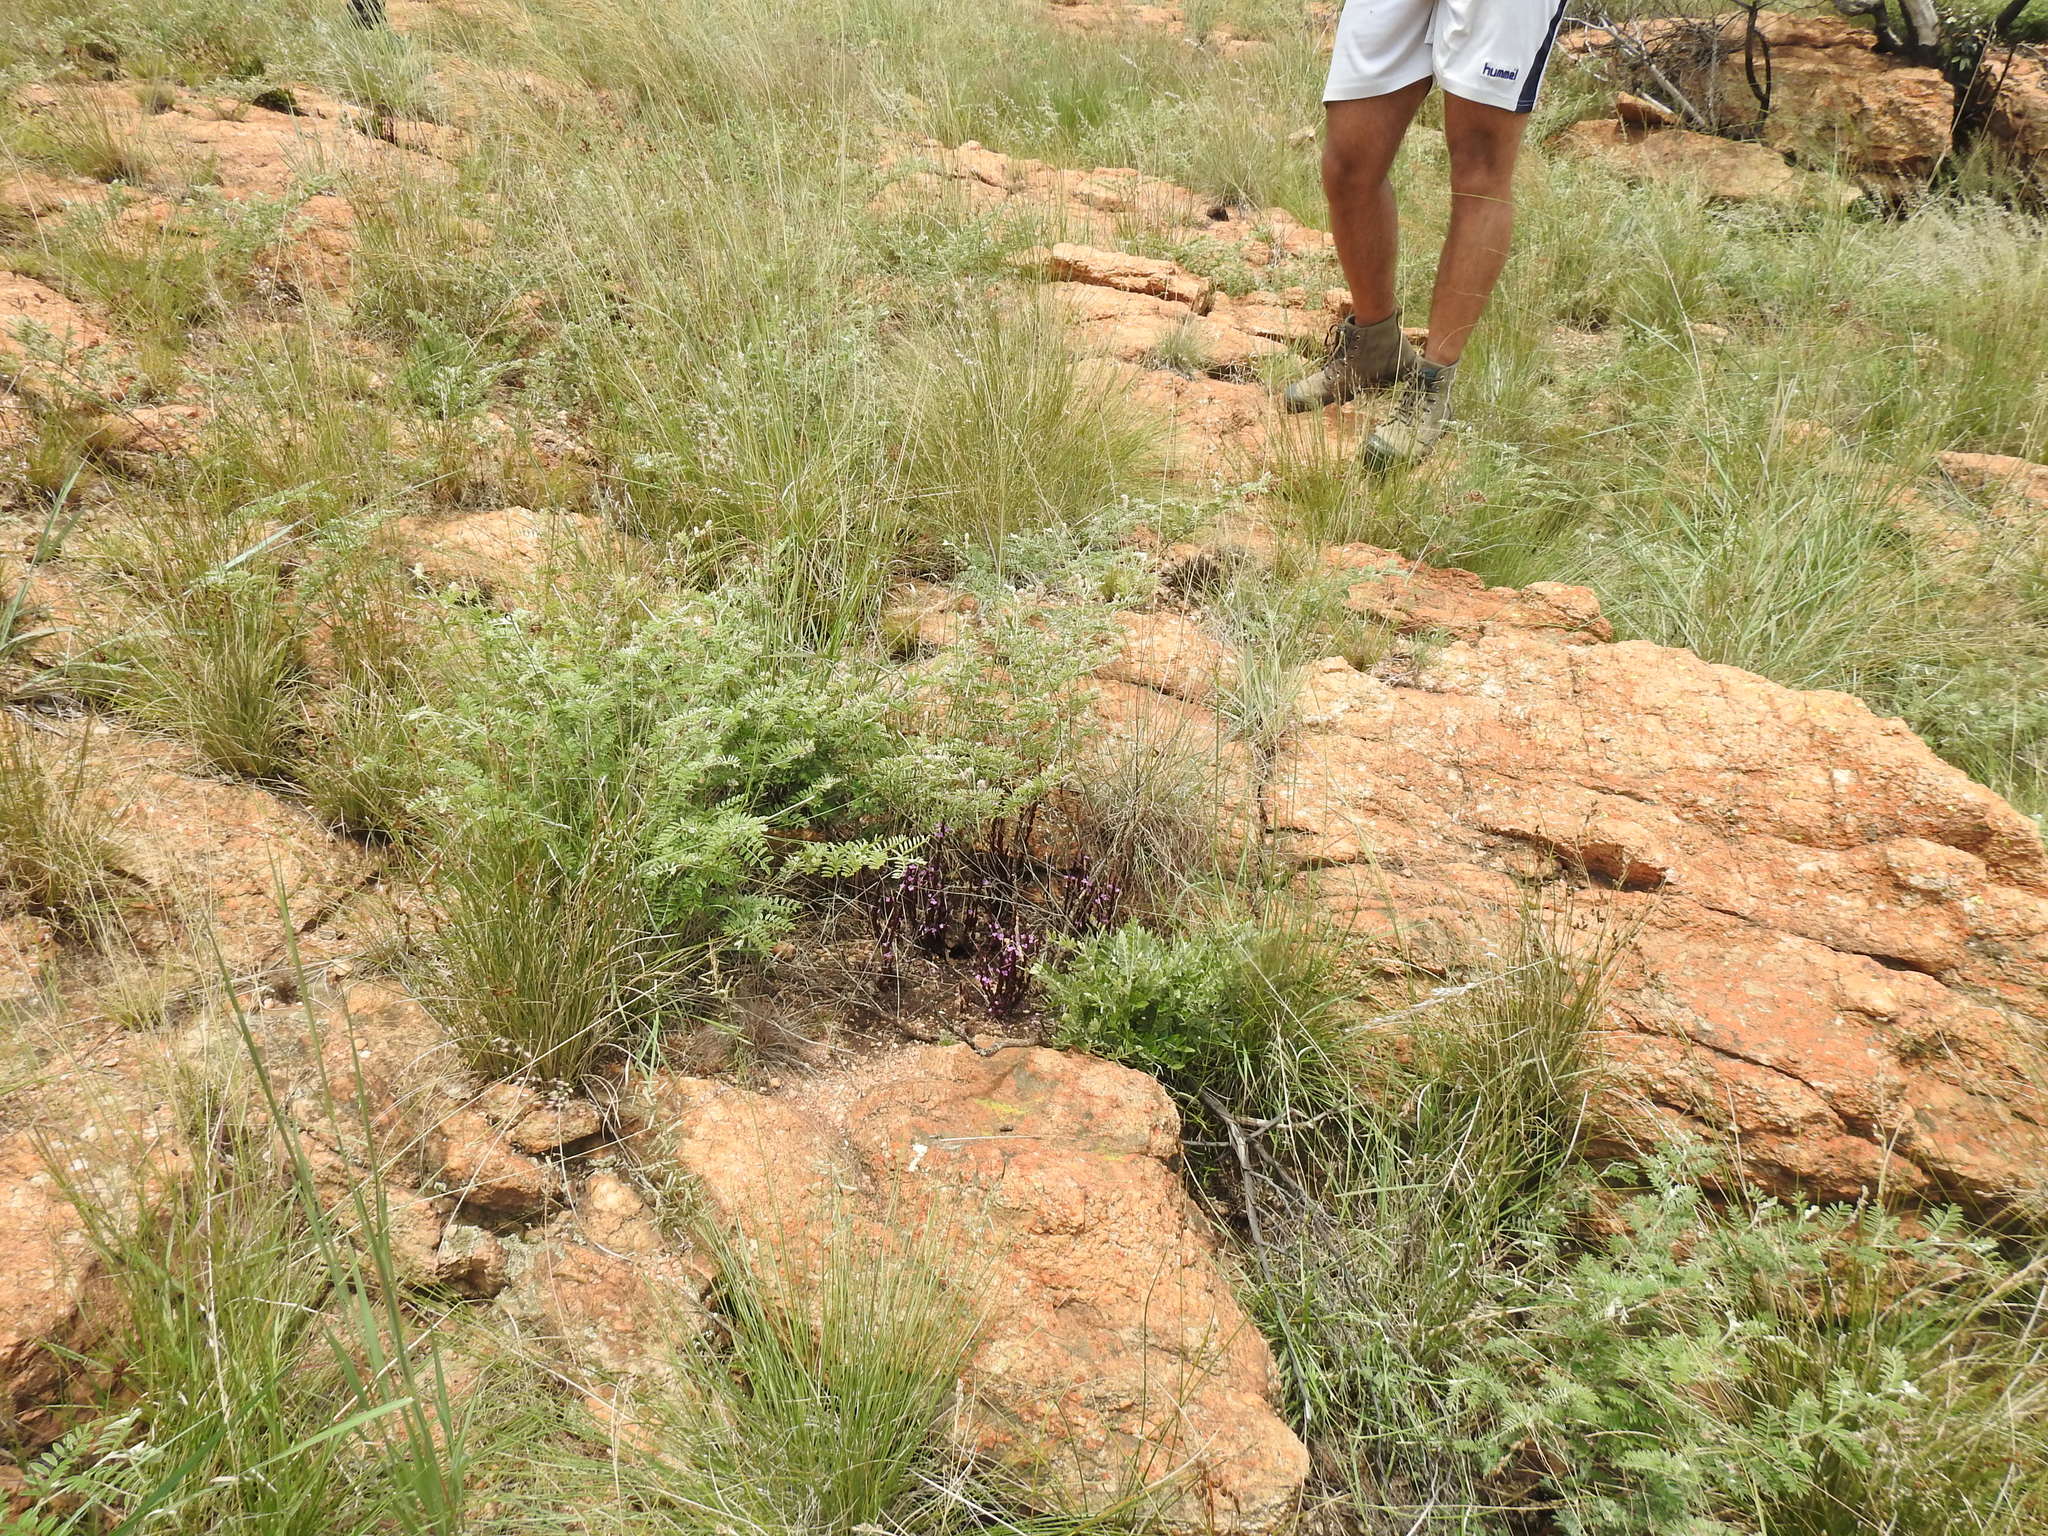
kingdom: Plantae
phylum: Tracheophyta
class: Magnoliopsida
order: Lamiales
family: Orobanchaceae
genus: Striga
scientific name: Striga gesnerioides
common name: Cowpea witchweed
